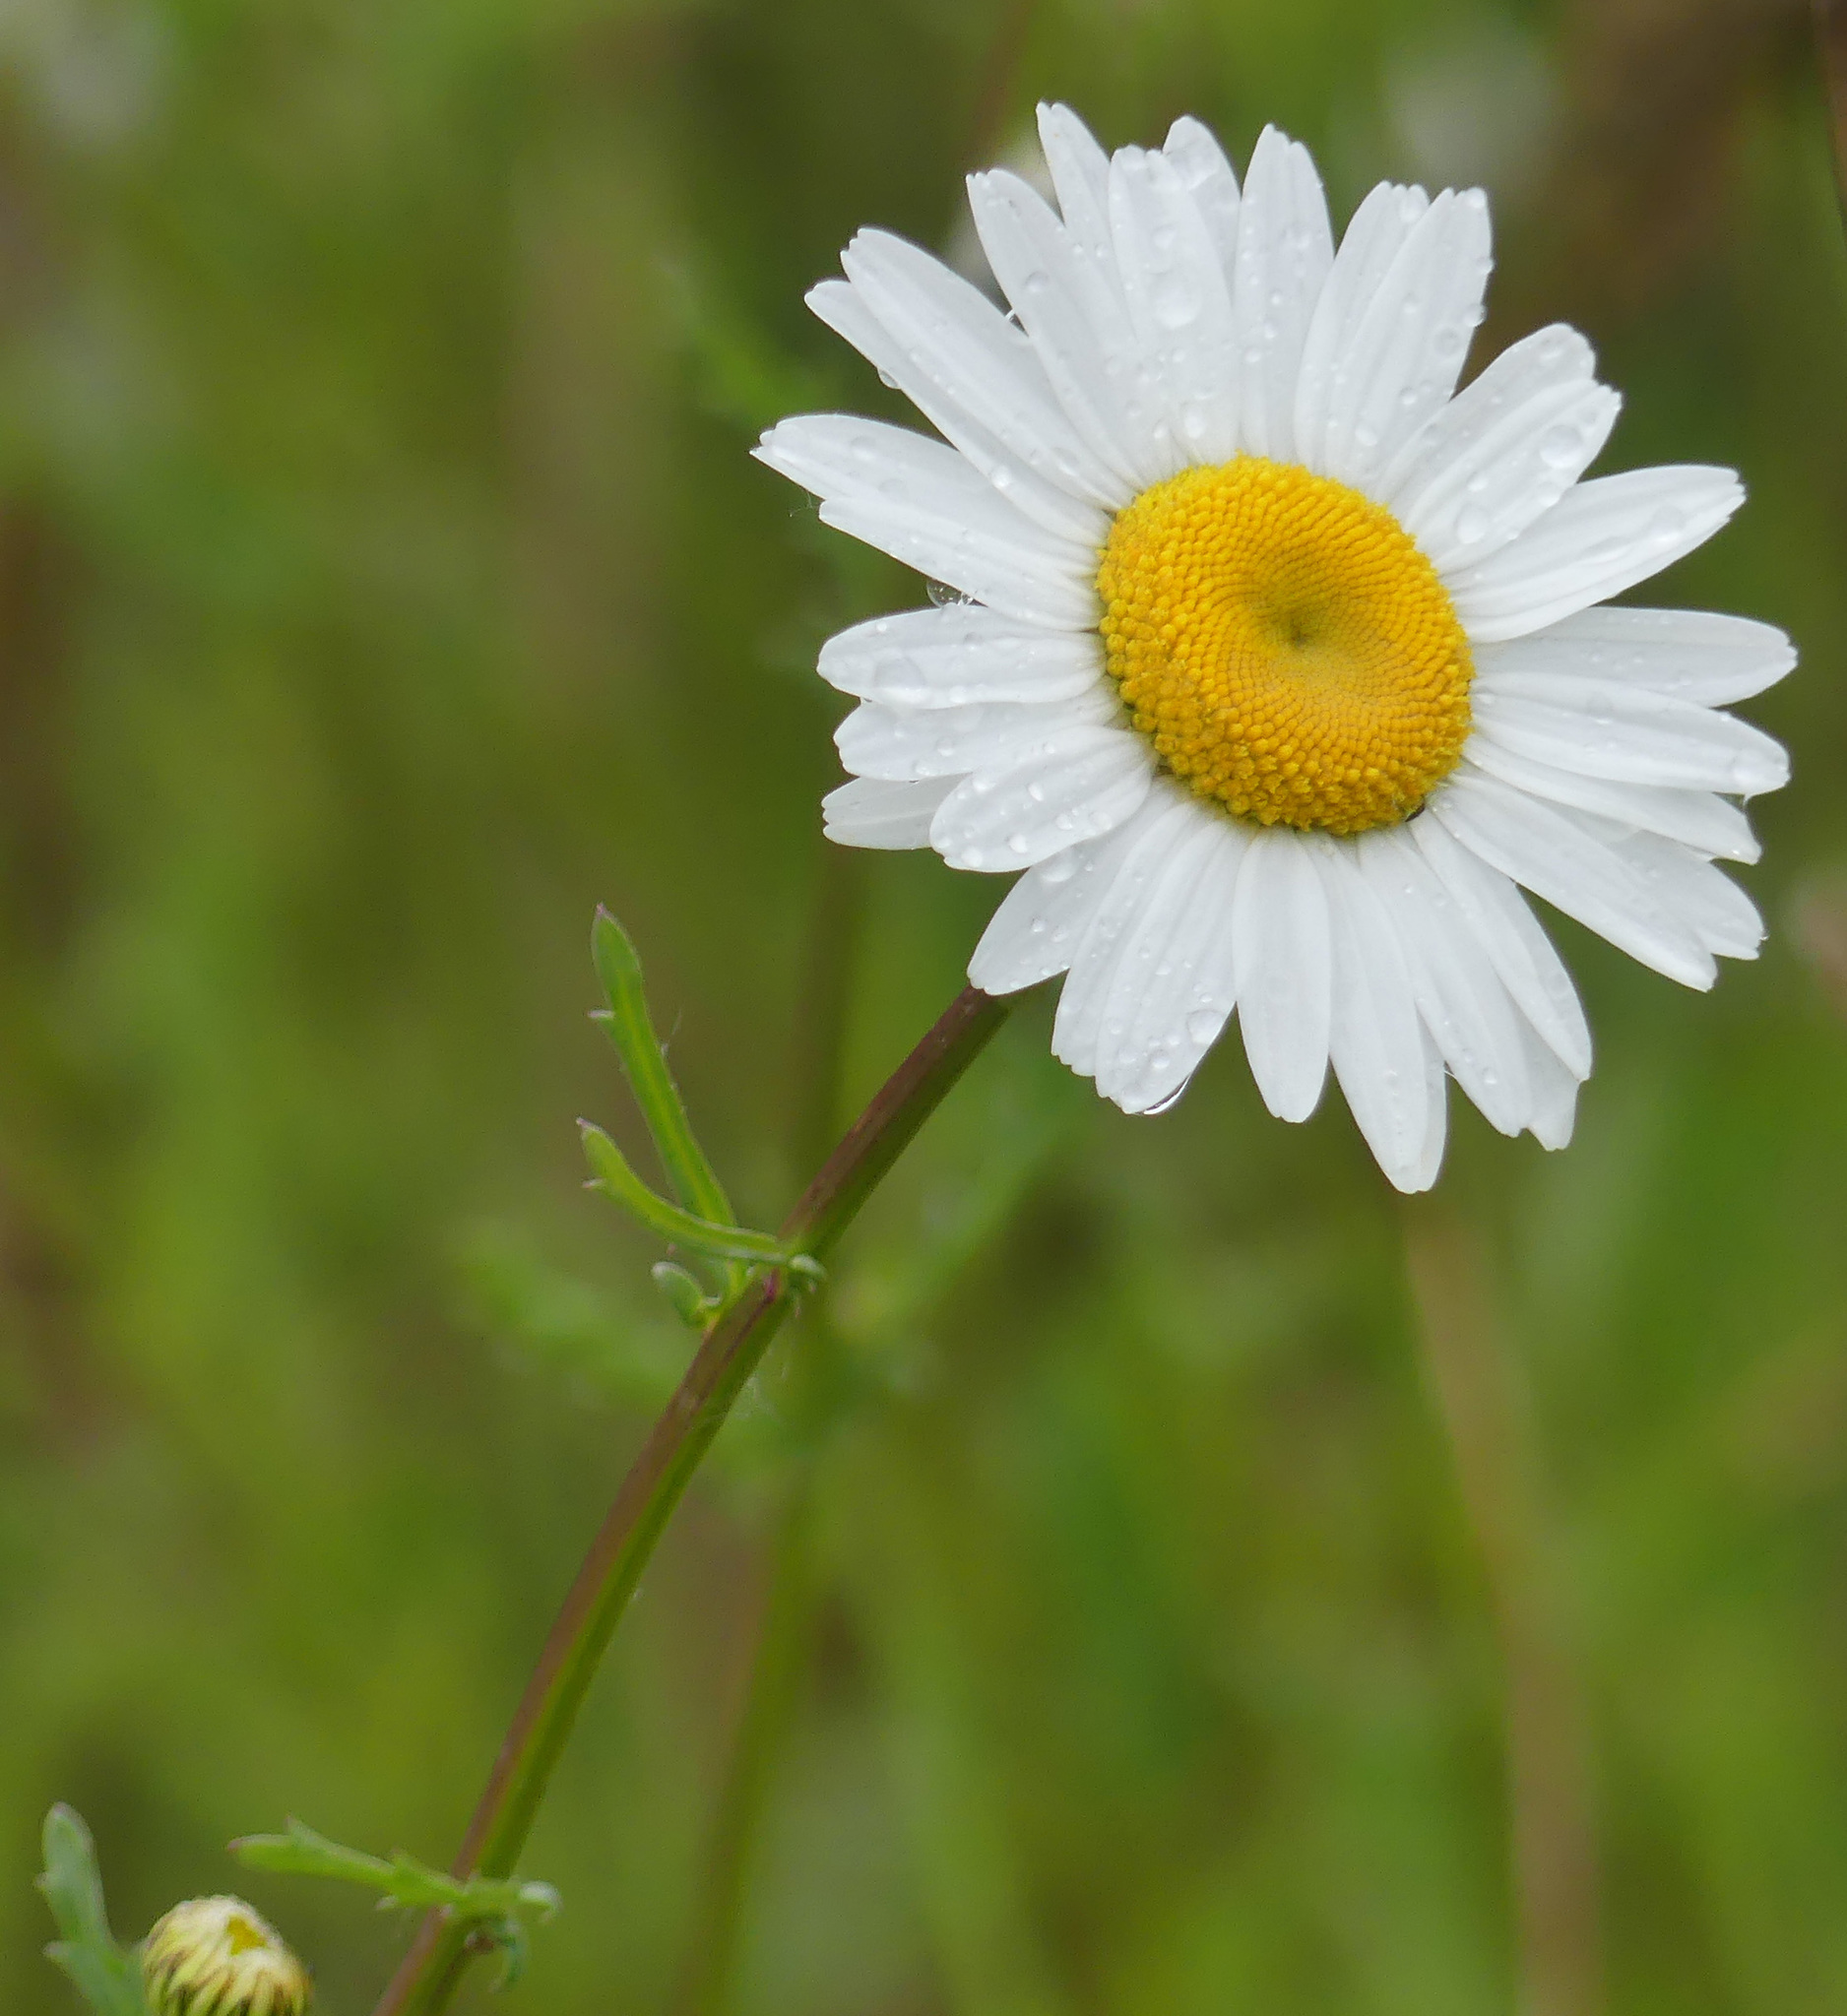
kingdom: Plantae
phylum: Tracheophyta
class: Magnoliopsida
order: Asterales
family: Asteraceae
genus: Leucanthemum
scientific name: Leucanthemum vulgare
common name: Oxeye daisy
